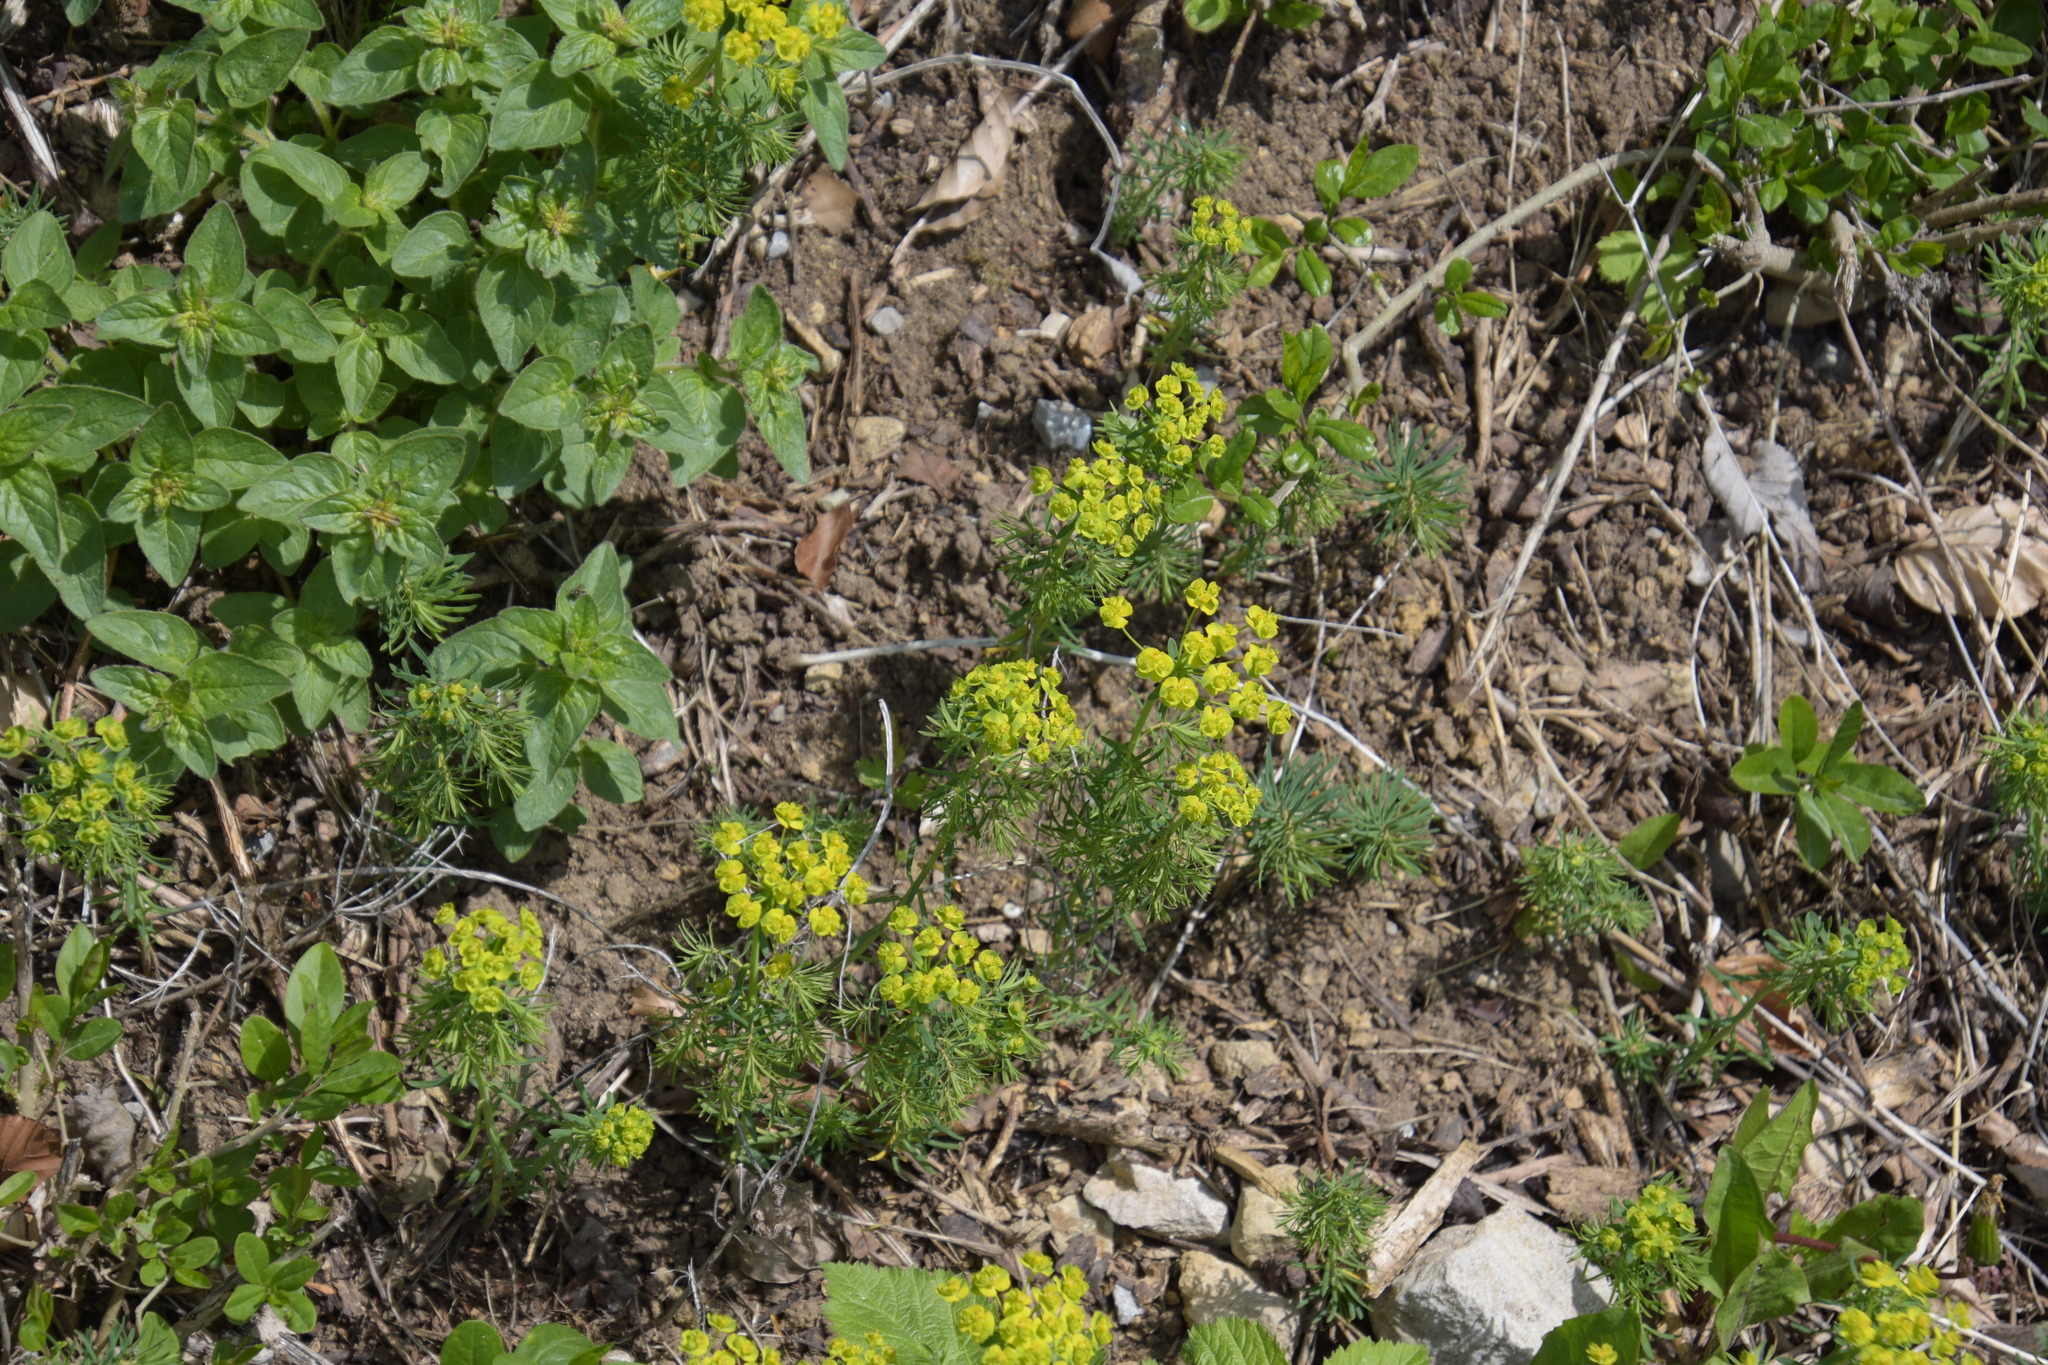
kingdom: Plantae
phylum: Tracheophyta
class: Magnoliopsida
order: Malpighiales
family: Euphorbiaceae
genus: Euphorbia
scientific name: Euphorbia cyparissias
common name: Cypress spurge
